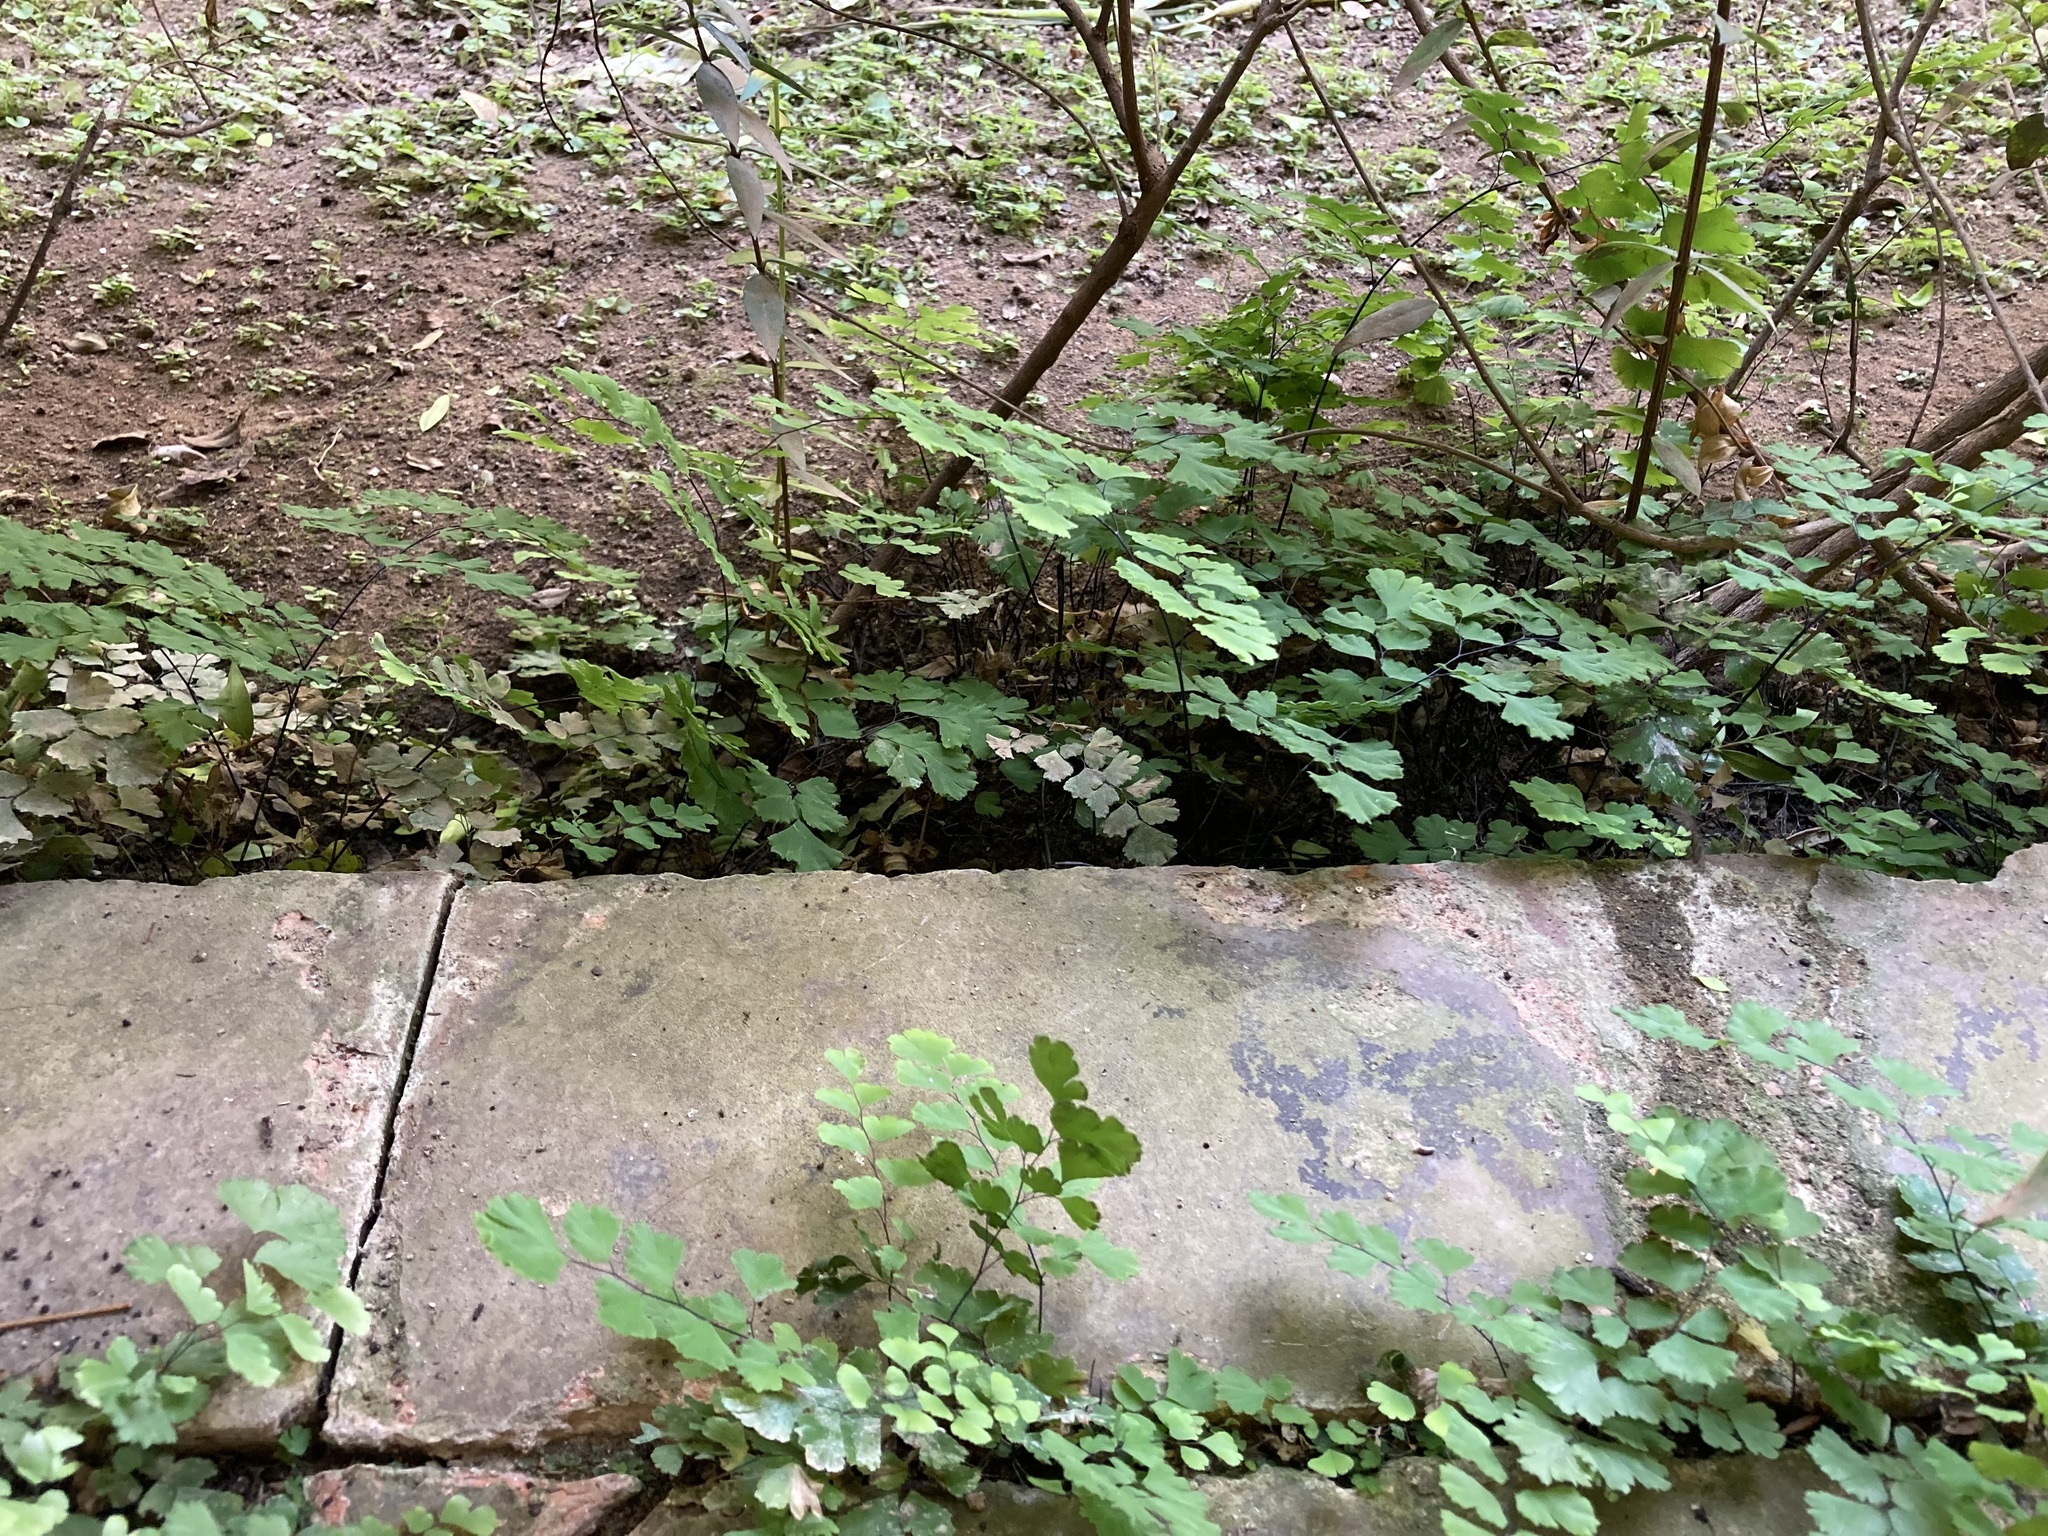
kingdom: Plantae
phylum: Tracheophyta
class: Polypodiopsida
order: Polypodiales
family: Pteridaceae
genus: Adiantum
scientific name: Adiantum capillus-veneris
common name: Maidenhair fern
